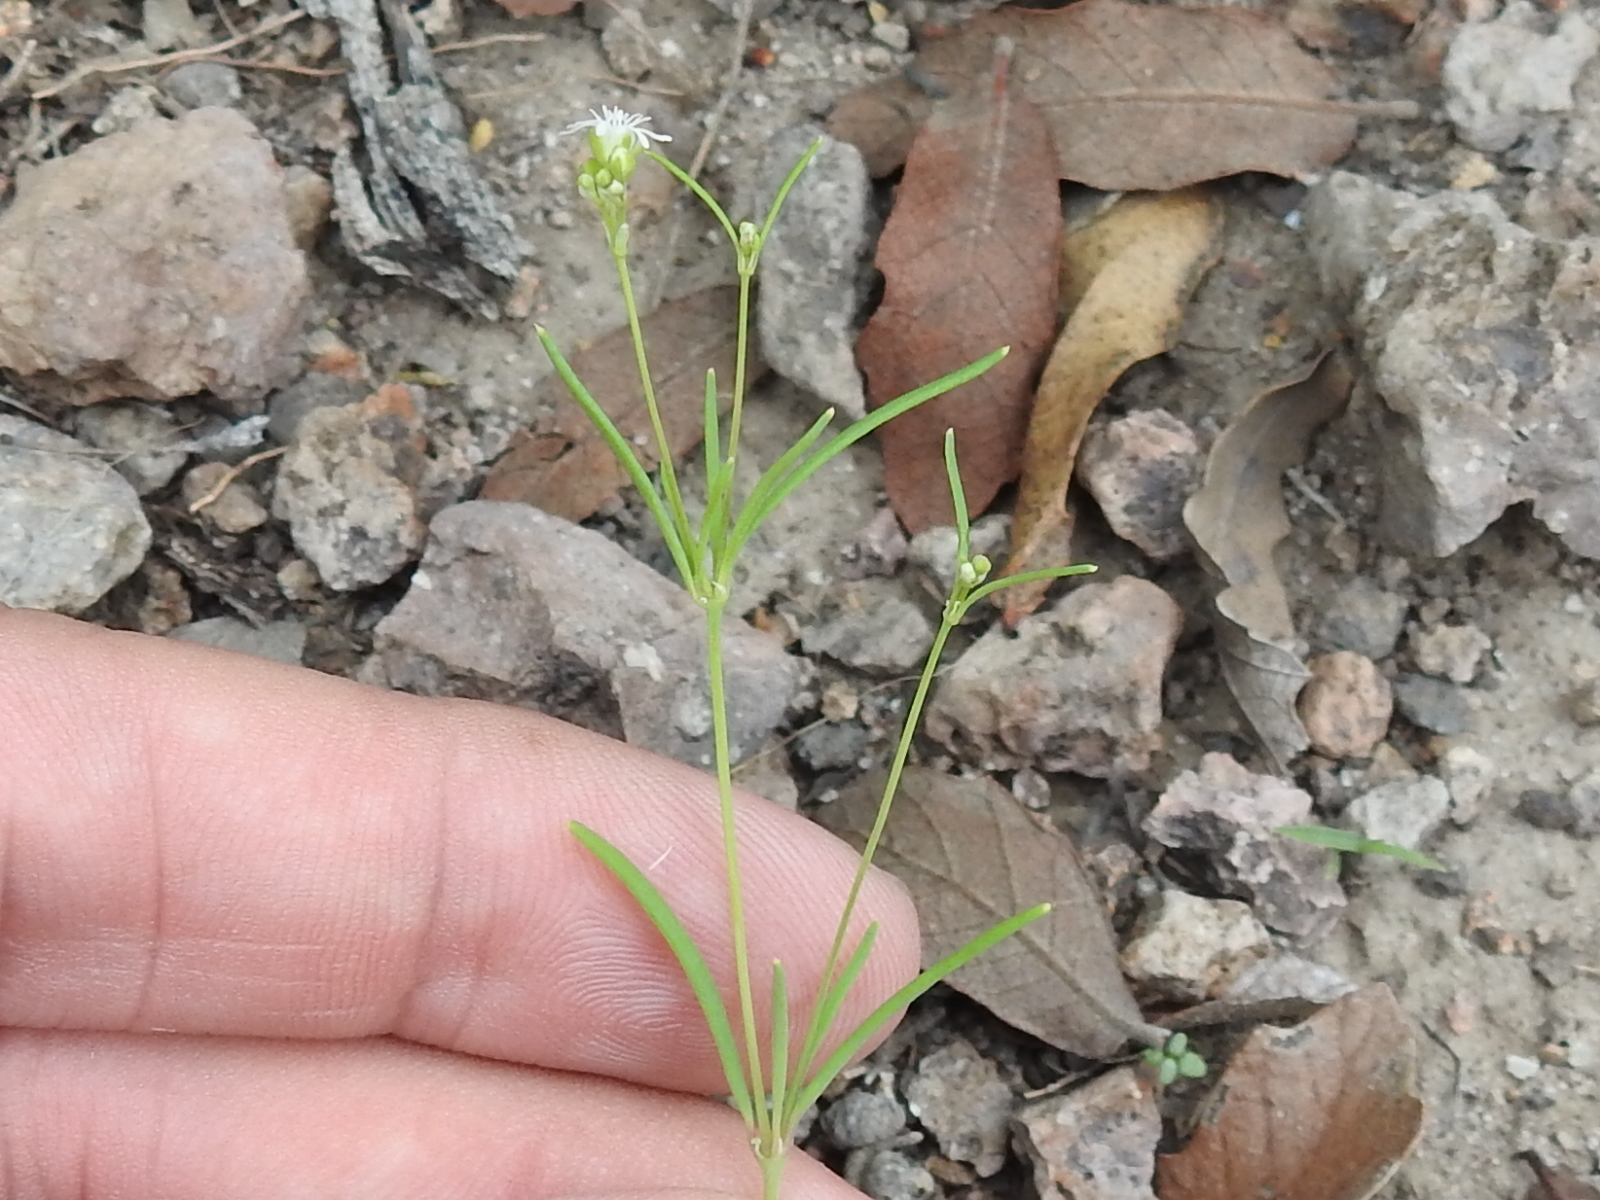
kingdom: Plantae
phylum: Tracheophyta
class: Magnoliopsida
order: Caryophyllales
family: Caryophyllaceae
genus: Drymaria
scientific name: Drymaria molluginea
